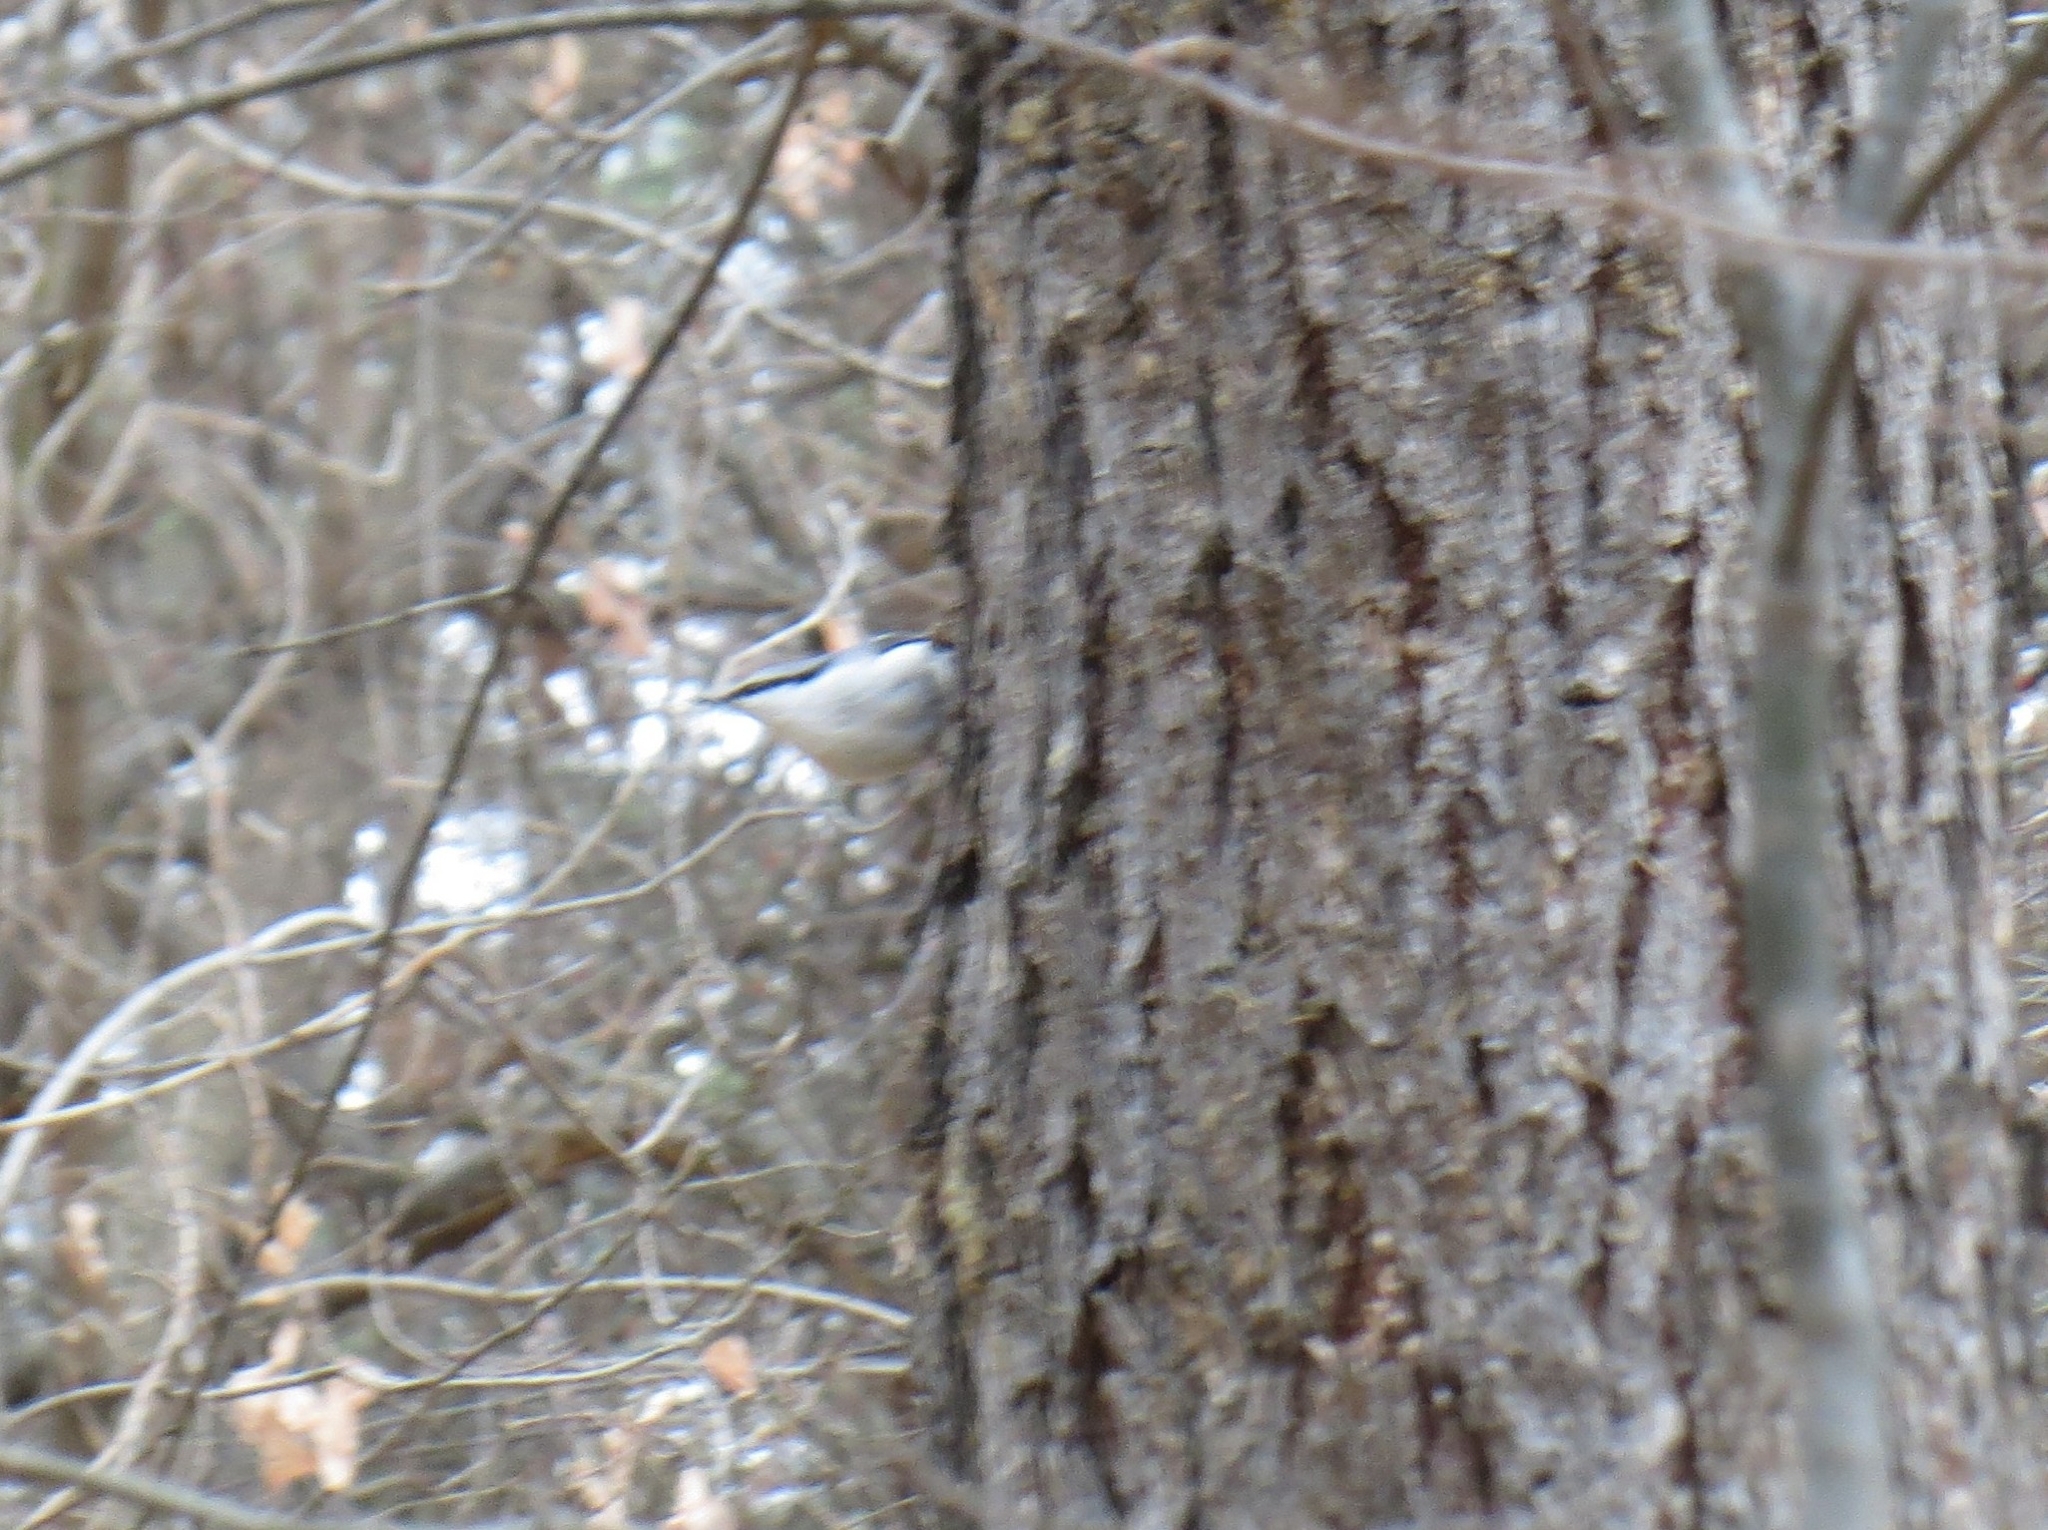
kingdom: Animalia
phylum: Chordata
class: Aves
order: Passeriformes
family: Sittidae
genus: Sitta
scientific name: Sitta europaea
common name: Eurasian nuthatch
